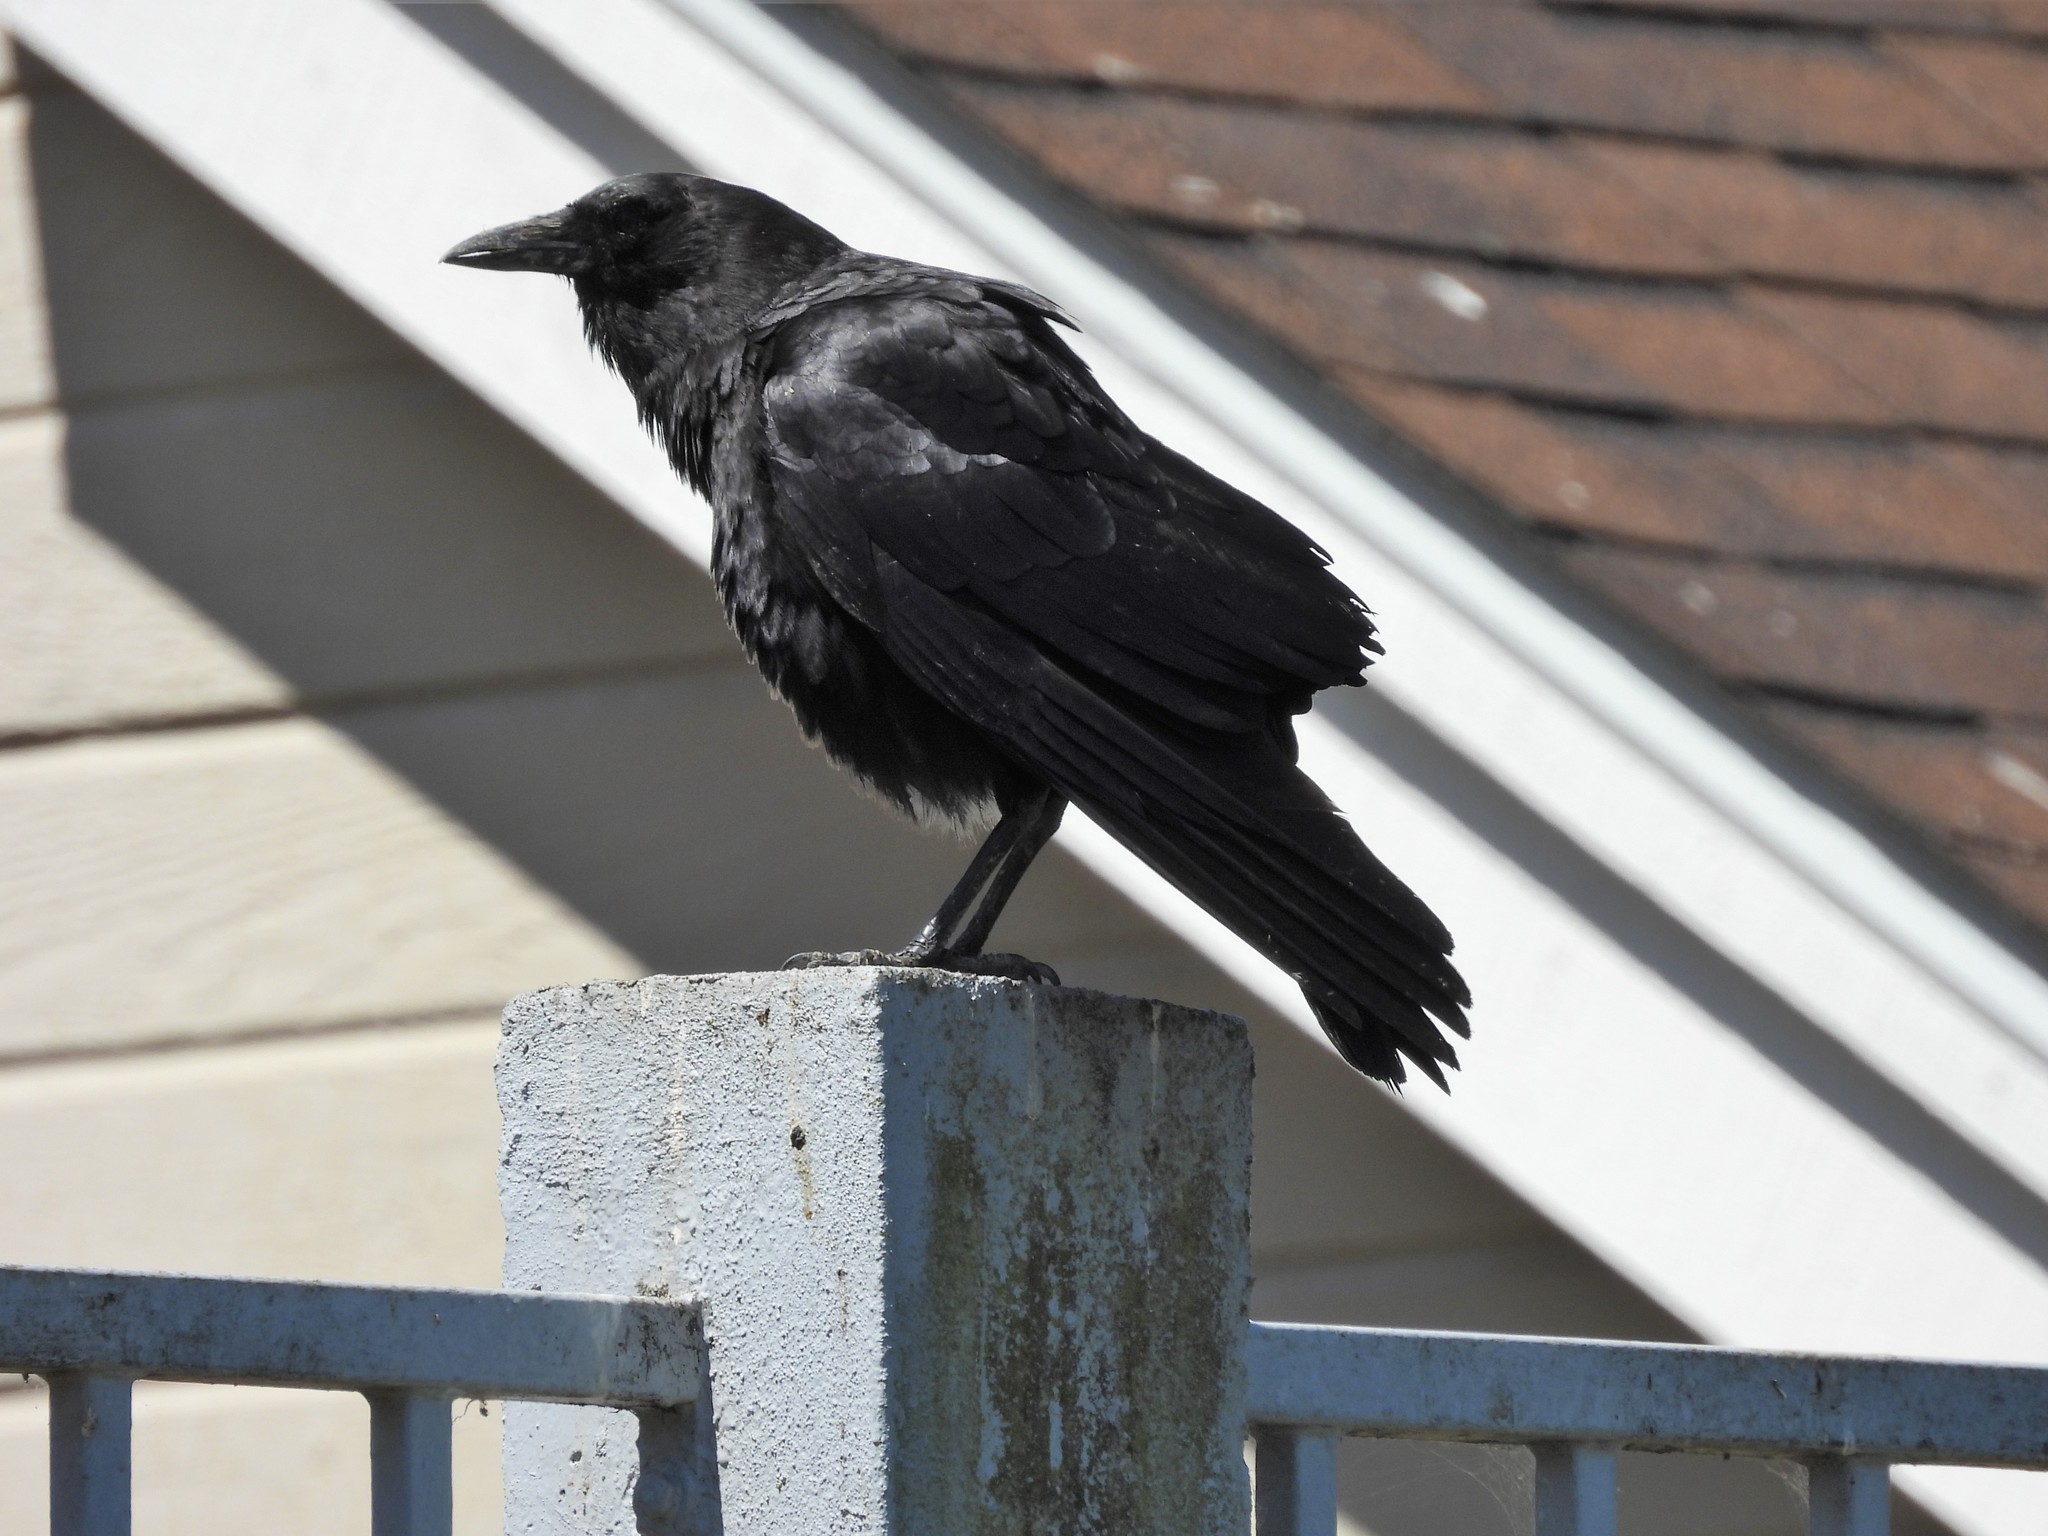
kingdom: Animalia
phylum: Chordata
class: Aves
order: Passeriformes
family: Corvidae
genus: Corvus
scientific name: Corvus brachyrhynchos
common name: American crow
